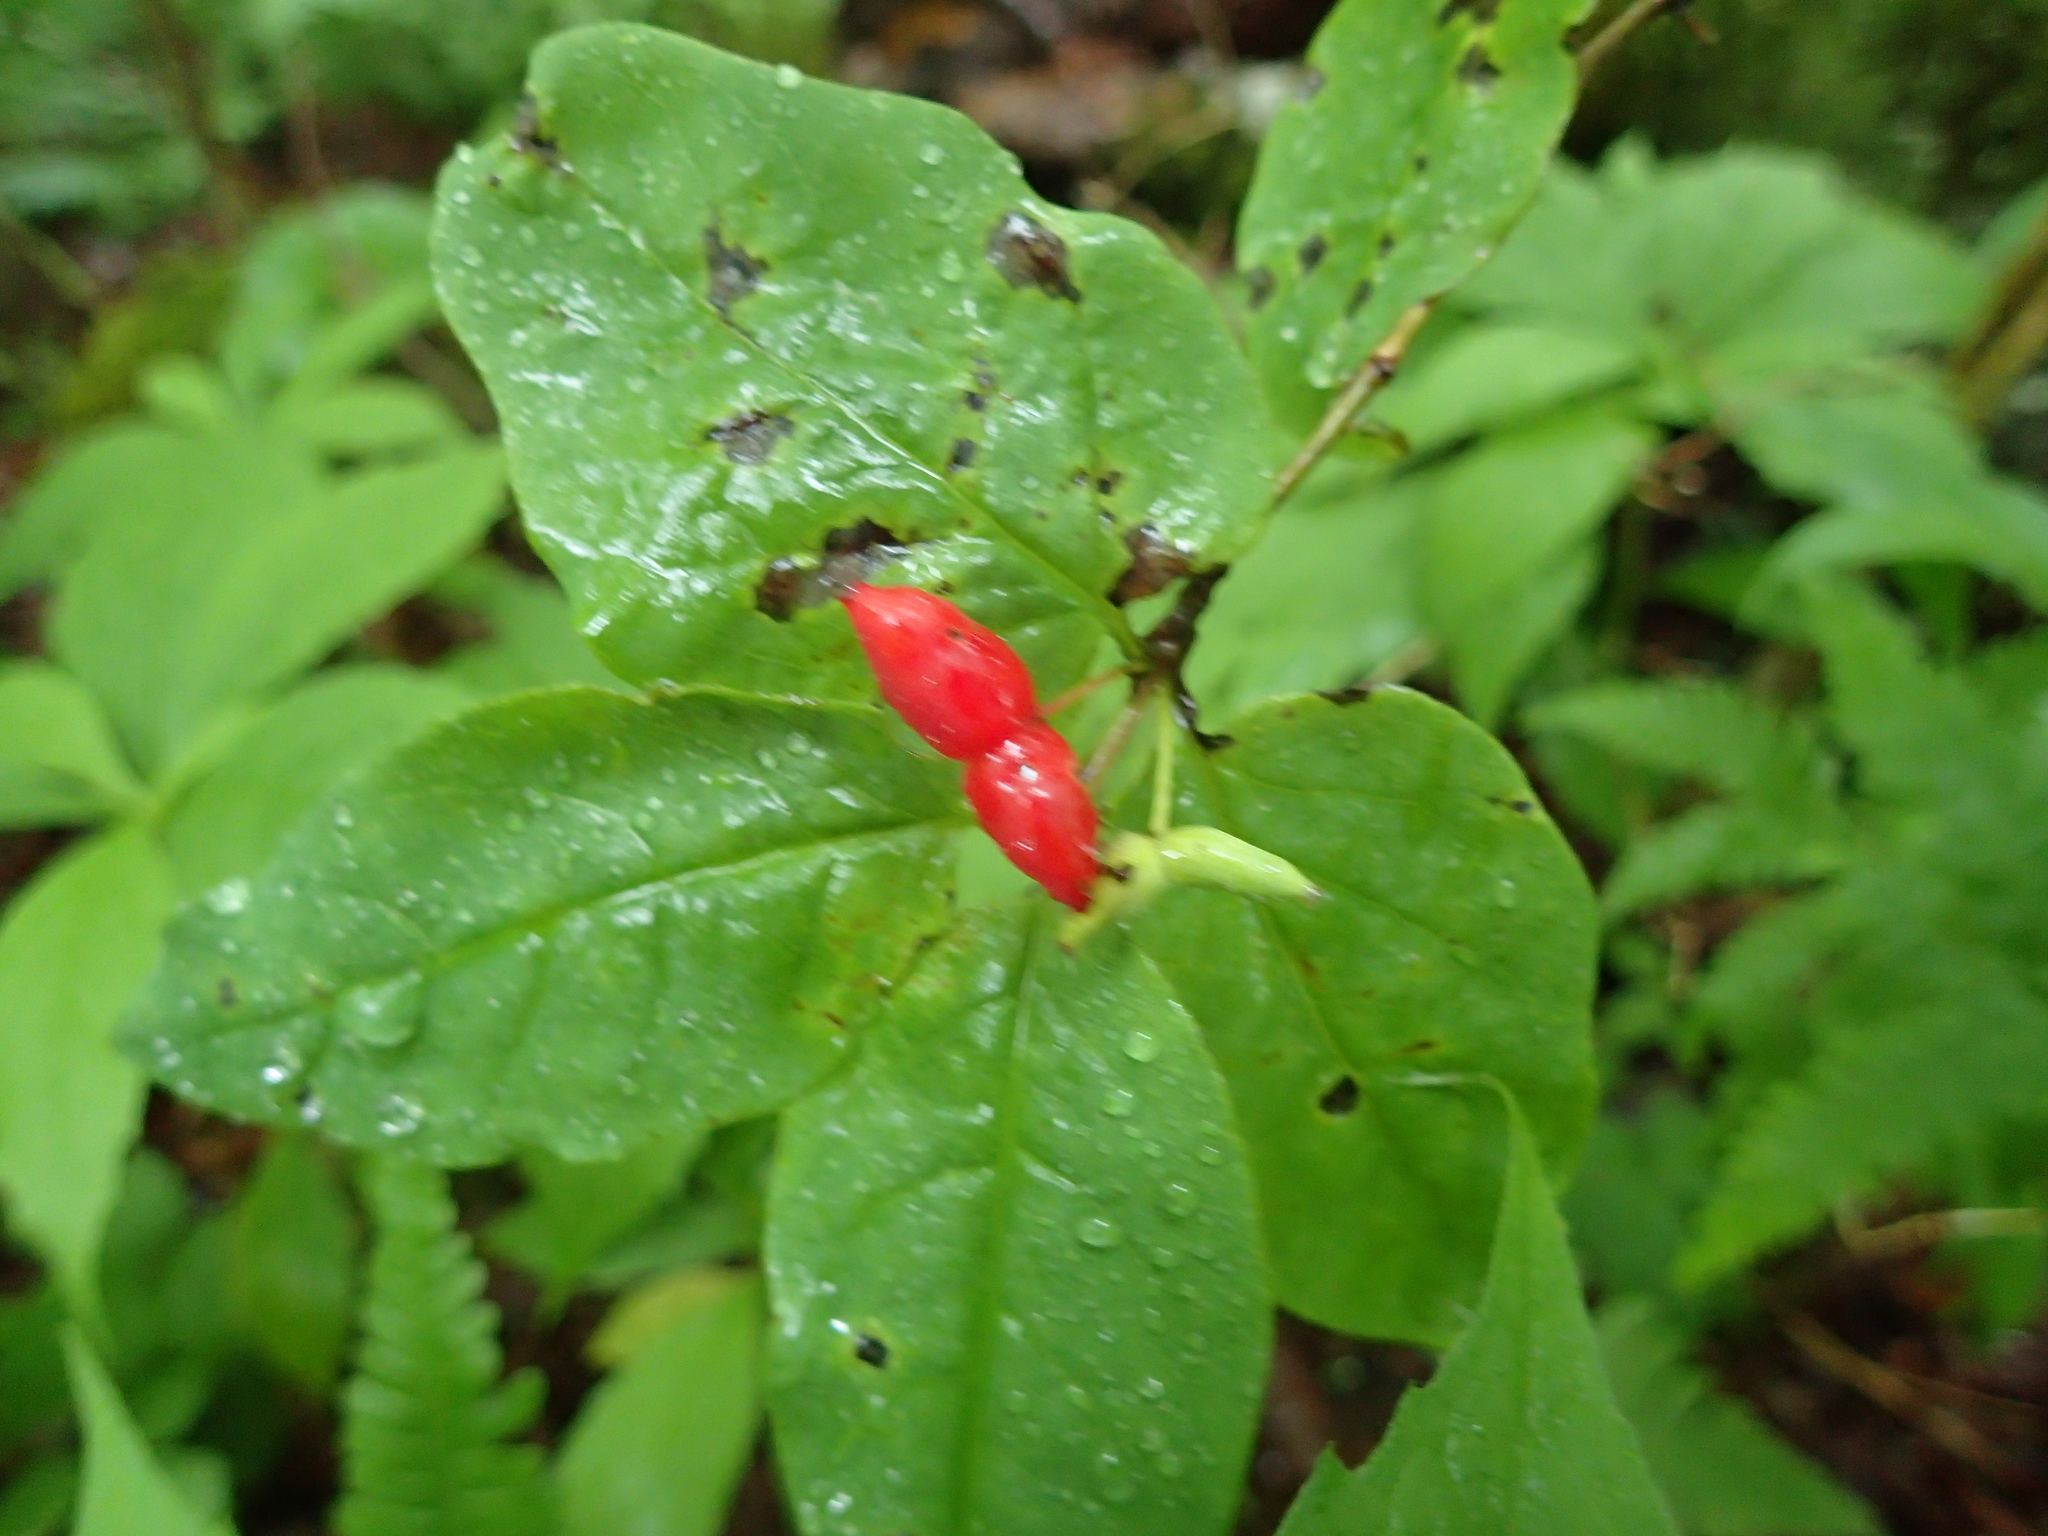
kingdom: Plantae
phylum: Tracheophyta
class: Magnoliopsida
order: Dipsacales
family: Caprifoliaceae
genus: Lonicera
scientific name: Lonicera canadensis
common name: American fly-honeysuckle
